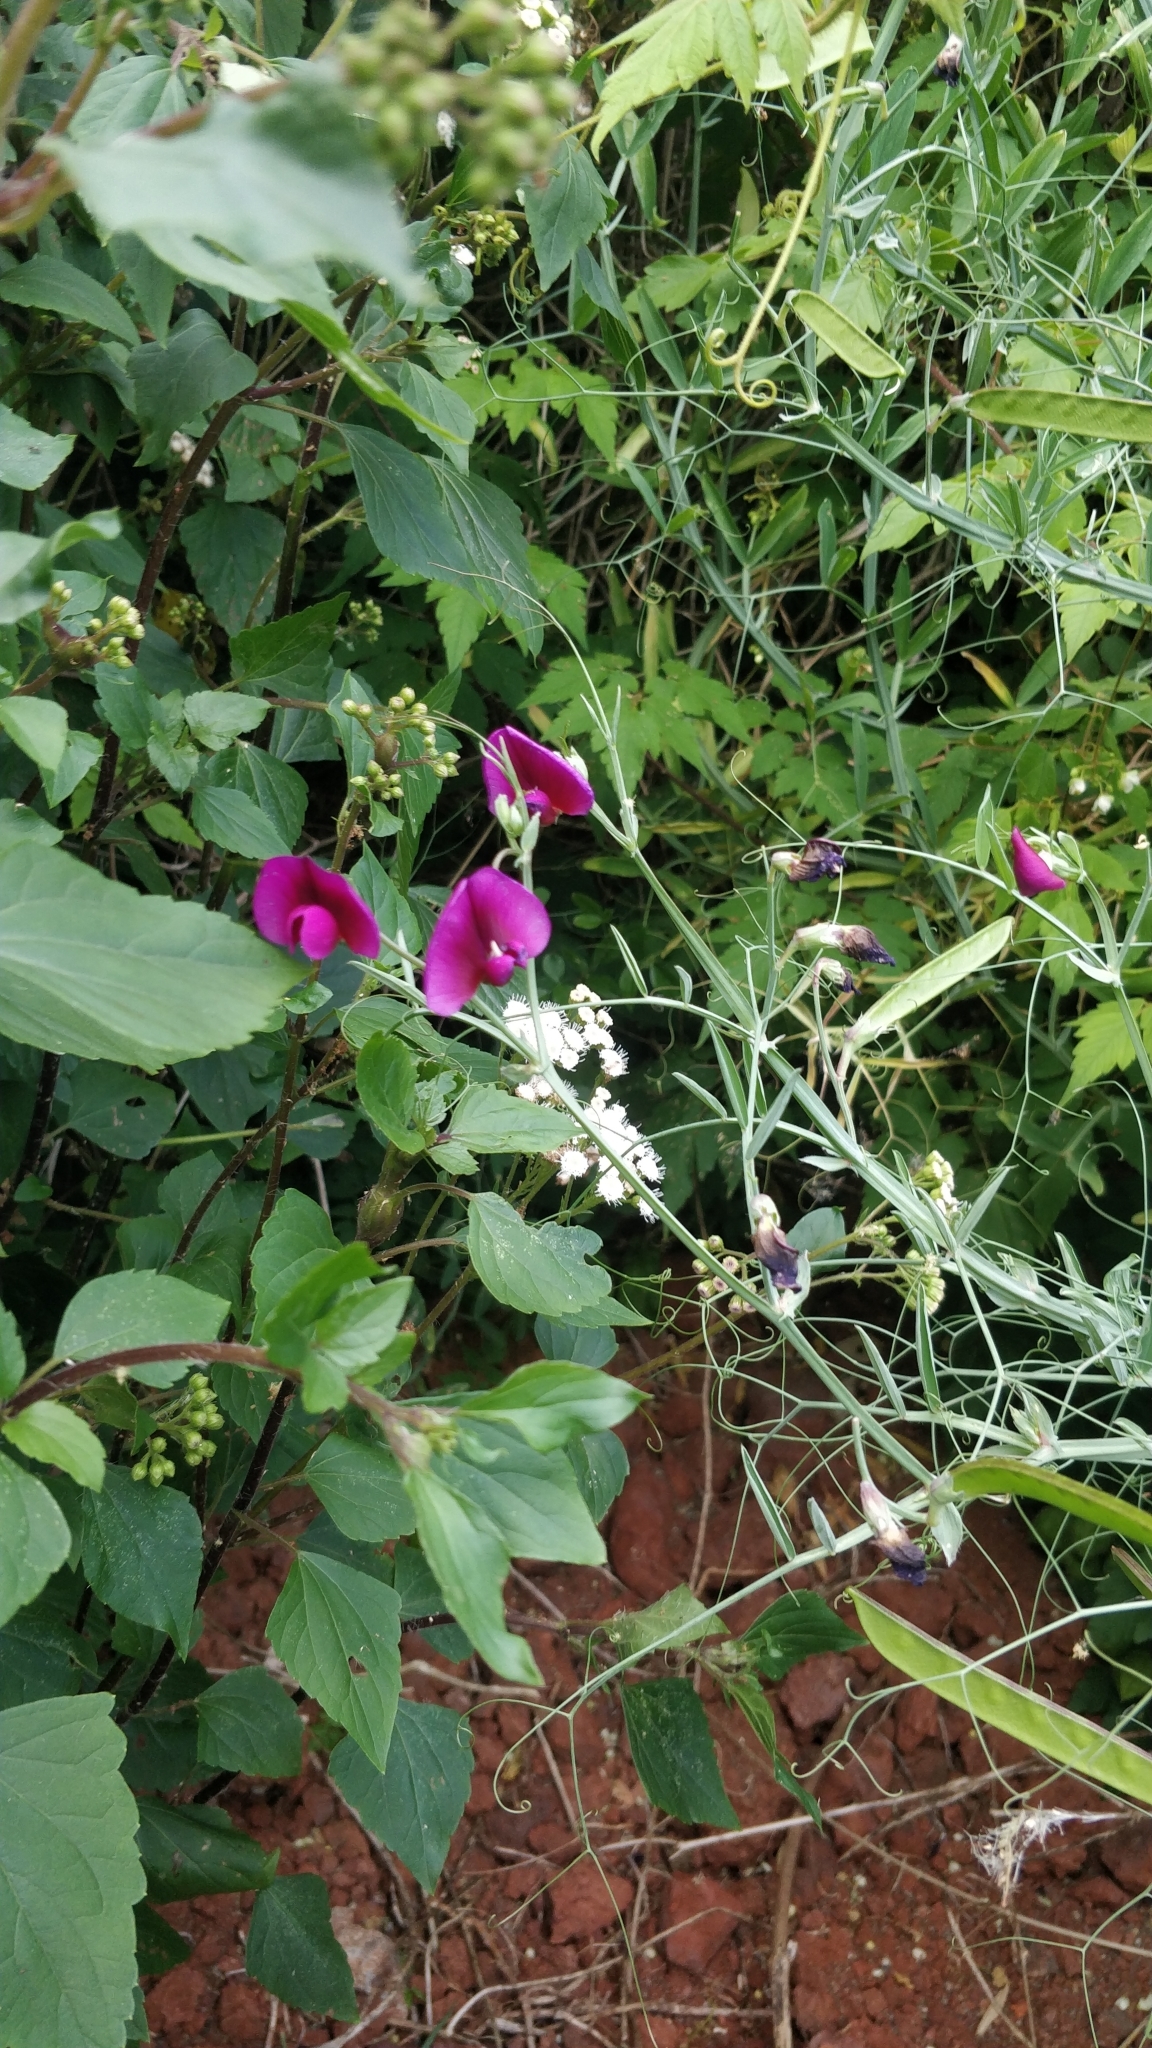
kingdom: Plantae
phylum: Tracheophyta
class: Magnoliopsida
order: Fabales
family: Fabaceae
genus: Lathyrus
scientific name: Lathyrus tingitanus
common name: Tangier pea
